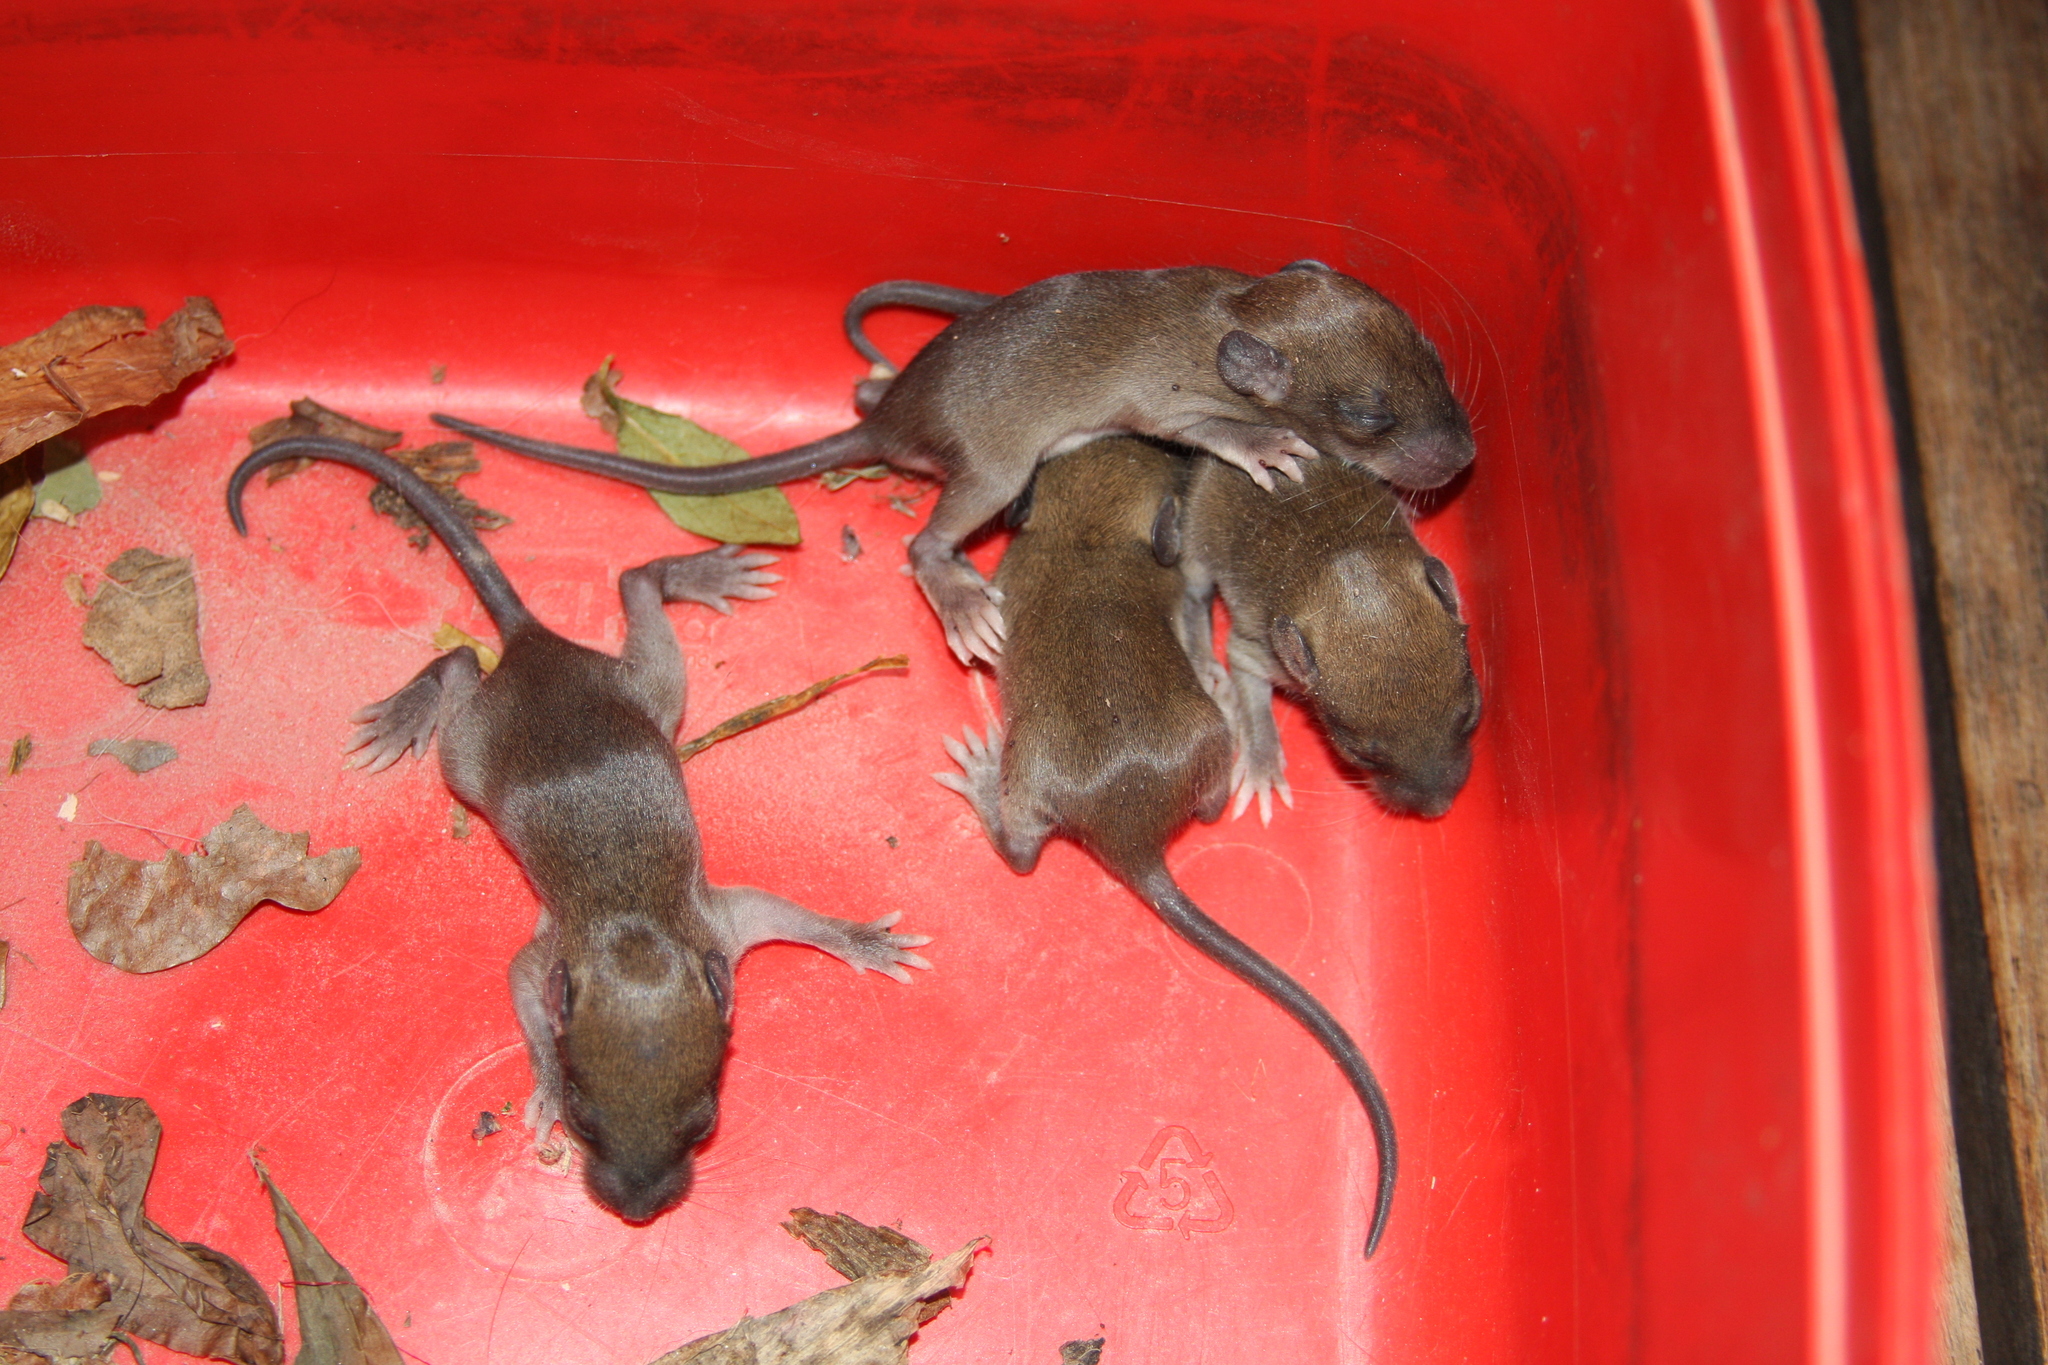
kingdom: Animalia
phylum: Chordata
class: Mammalia
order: Rodentia
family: Muridae
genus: Rattus
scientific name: Rattus rattus
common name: Black rat
